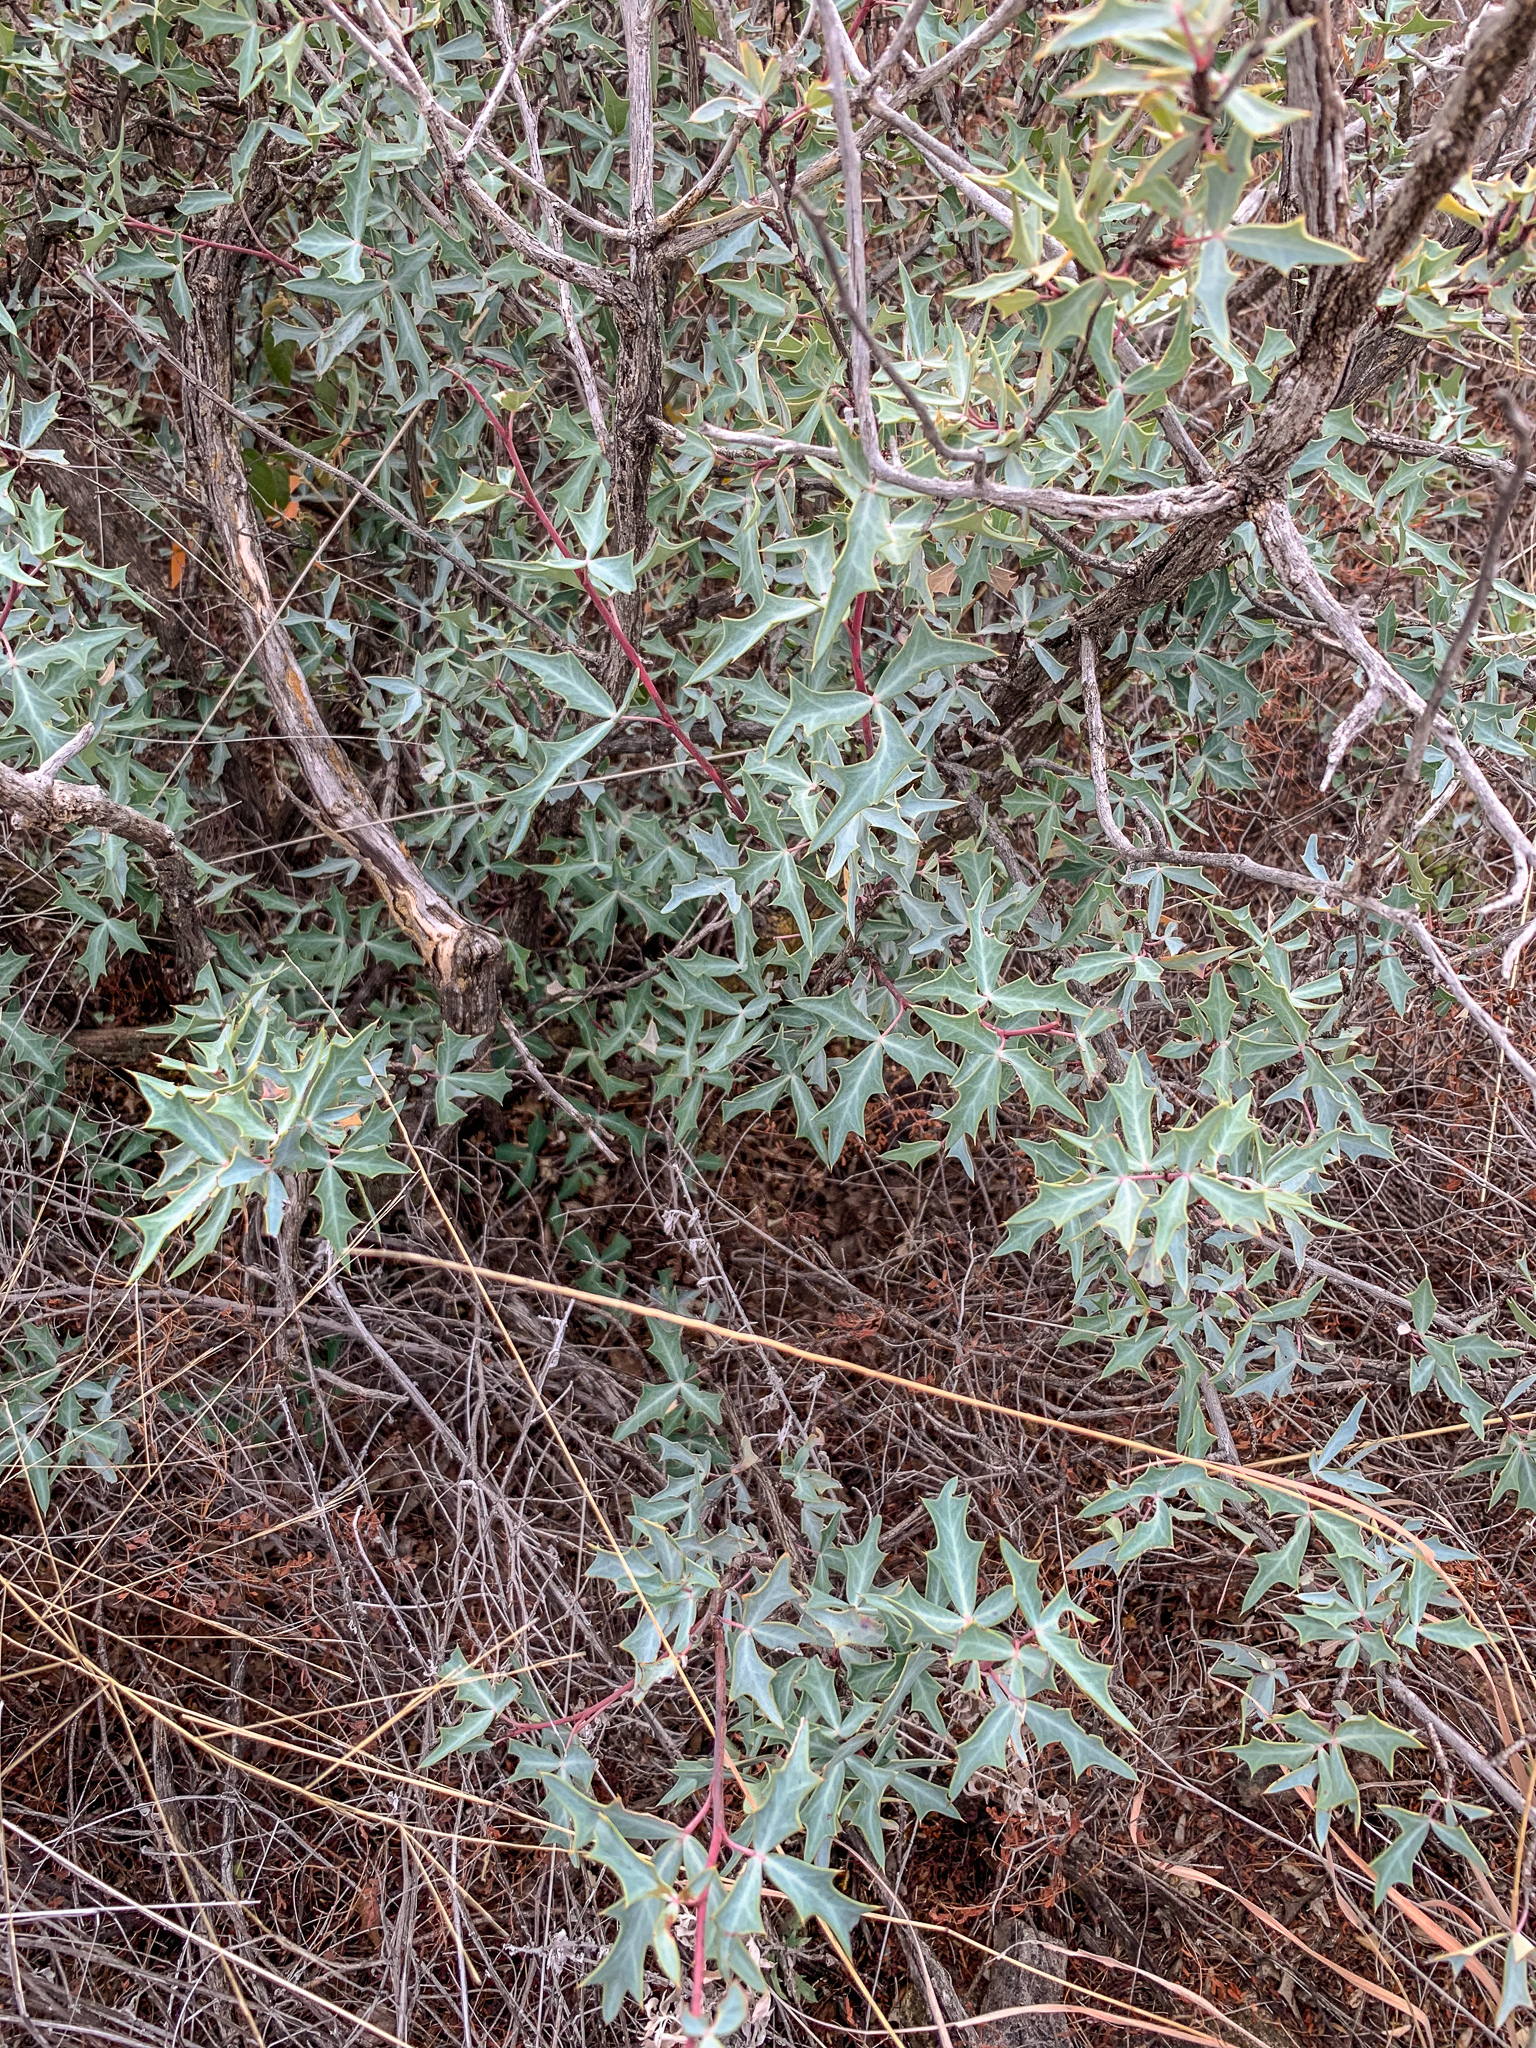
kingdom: Plantae
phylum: Tracheophyta
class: Magnoliopsida
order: Ranunculales
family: Berberidaceae
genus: Alloberberis
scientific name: Alloberberis trifoliolata
